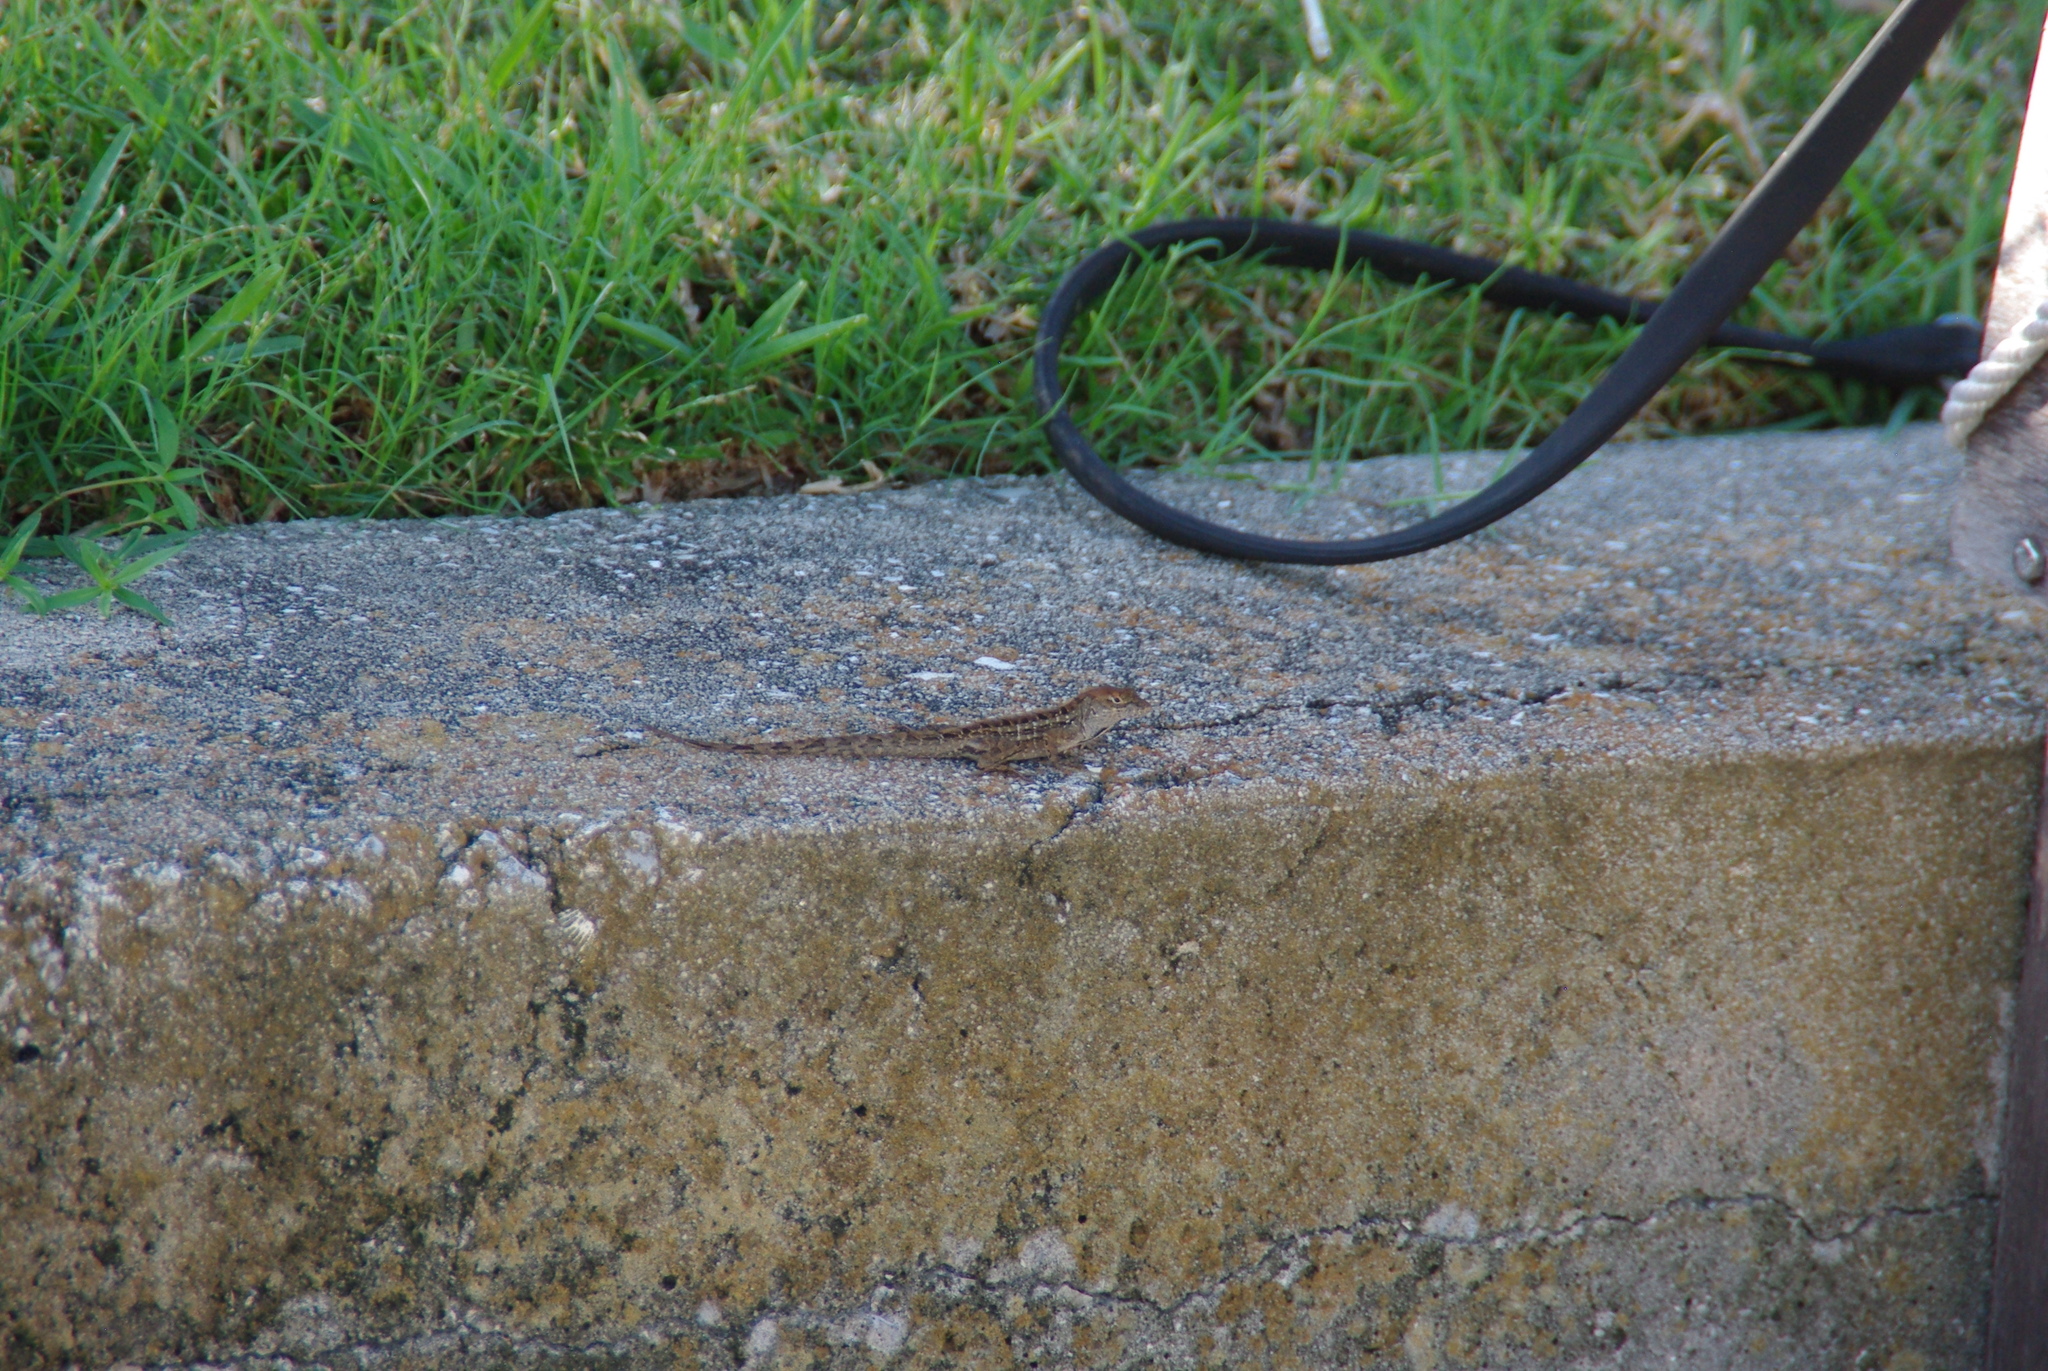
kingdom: Animalia
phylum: Chordata
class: Squamata
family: Dactyloidae
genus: Anolis
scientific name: Anolis sagrei
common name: Brown anole
